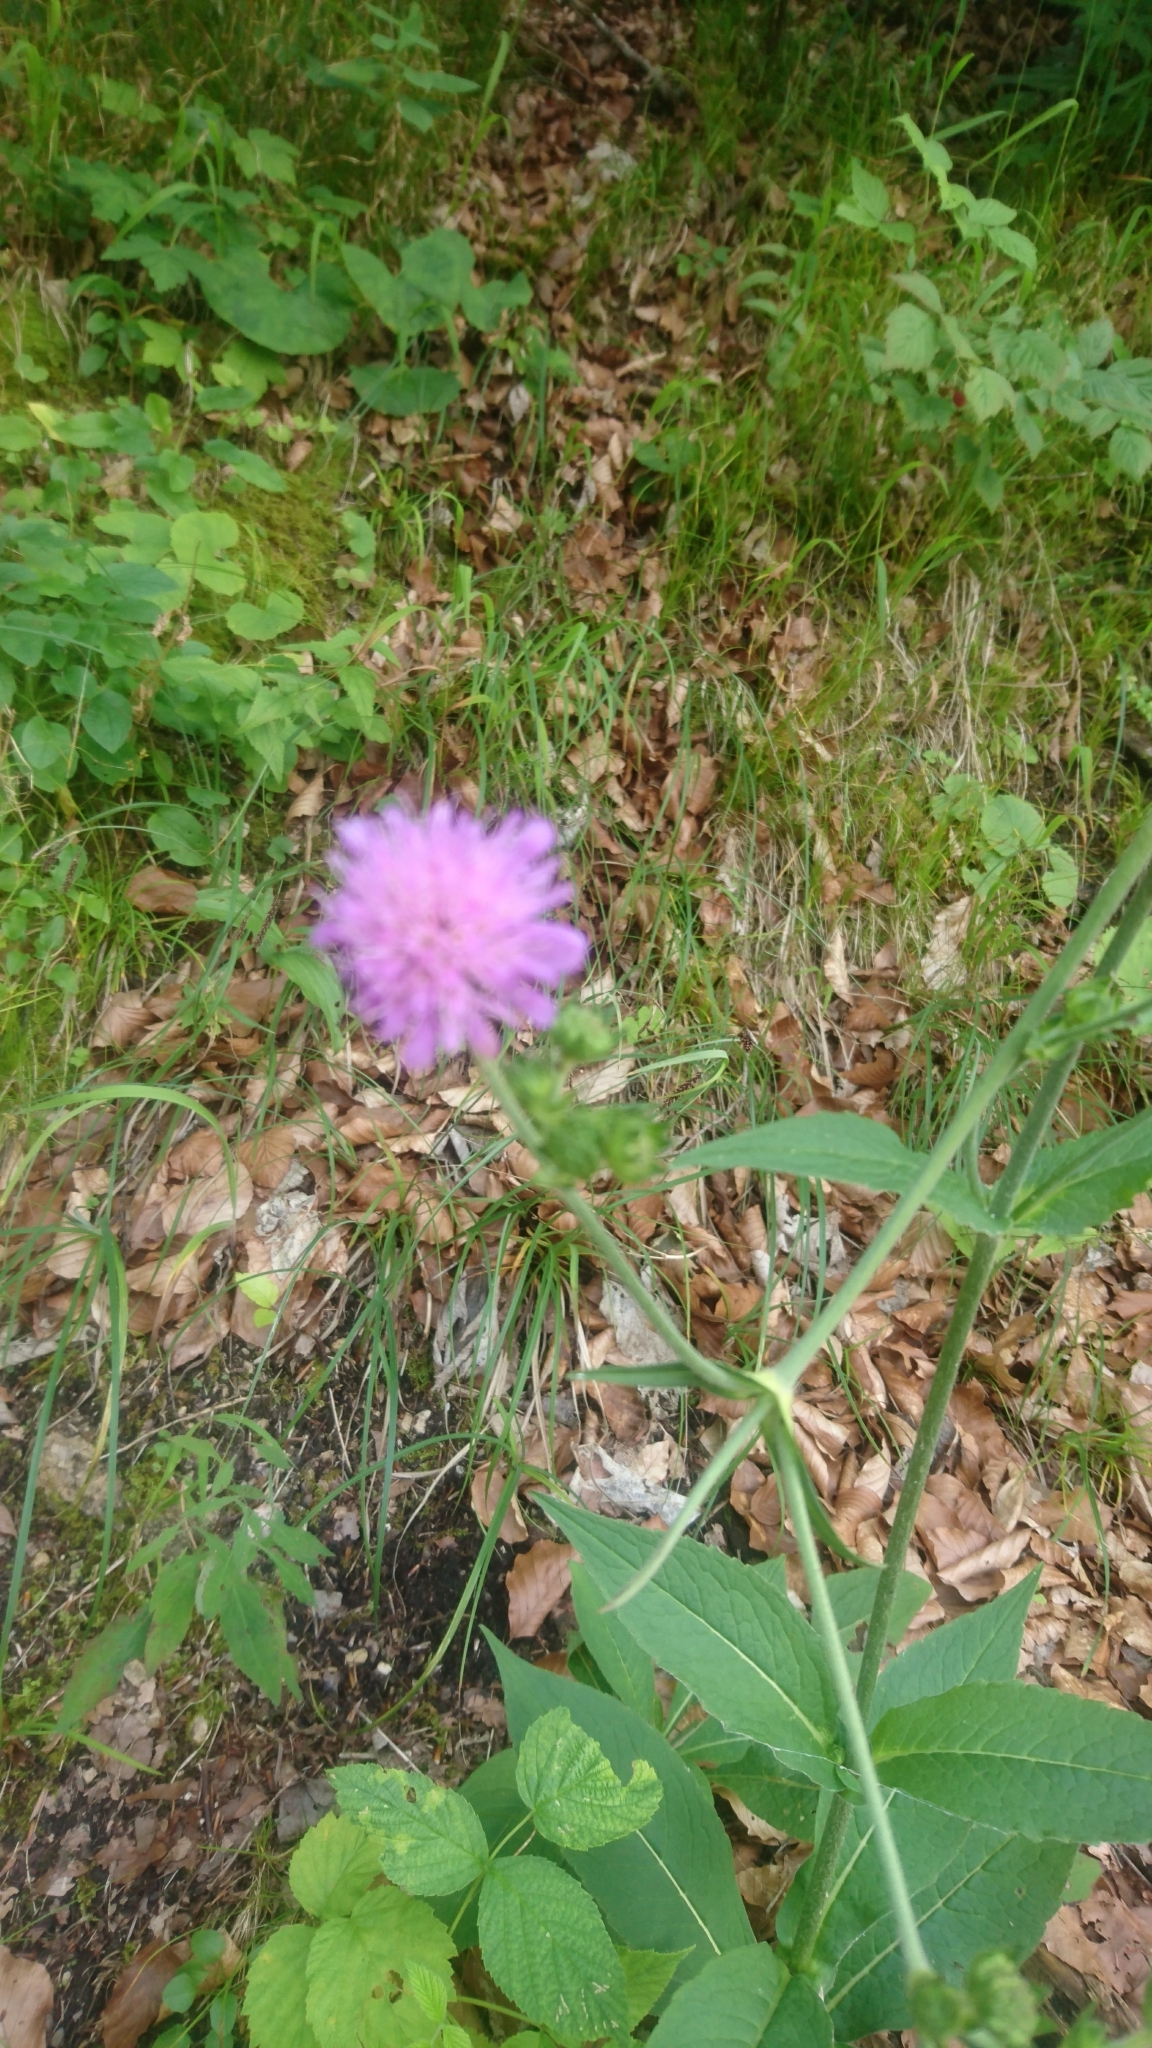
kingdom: Plantae
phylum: Tracheophyta
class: Magnoliopsida
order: Dipsacales
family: Caprifoliaceae
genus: Knautia
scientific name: Knautia arvensis
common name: Field scabiosa
